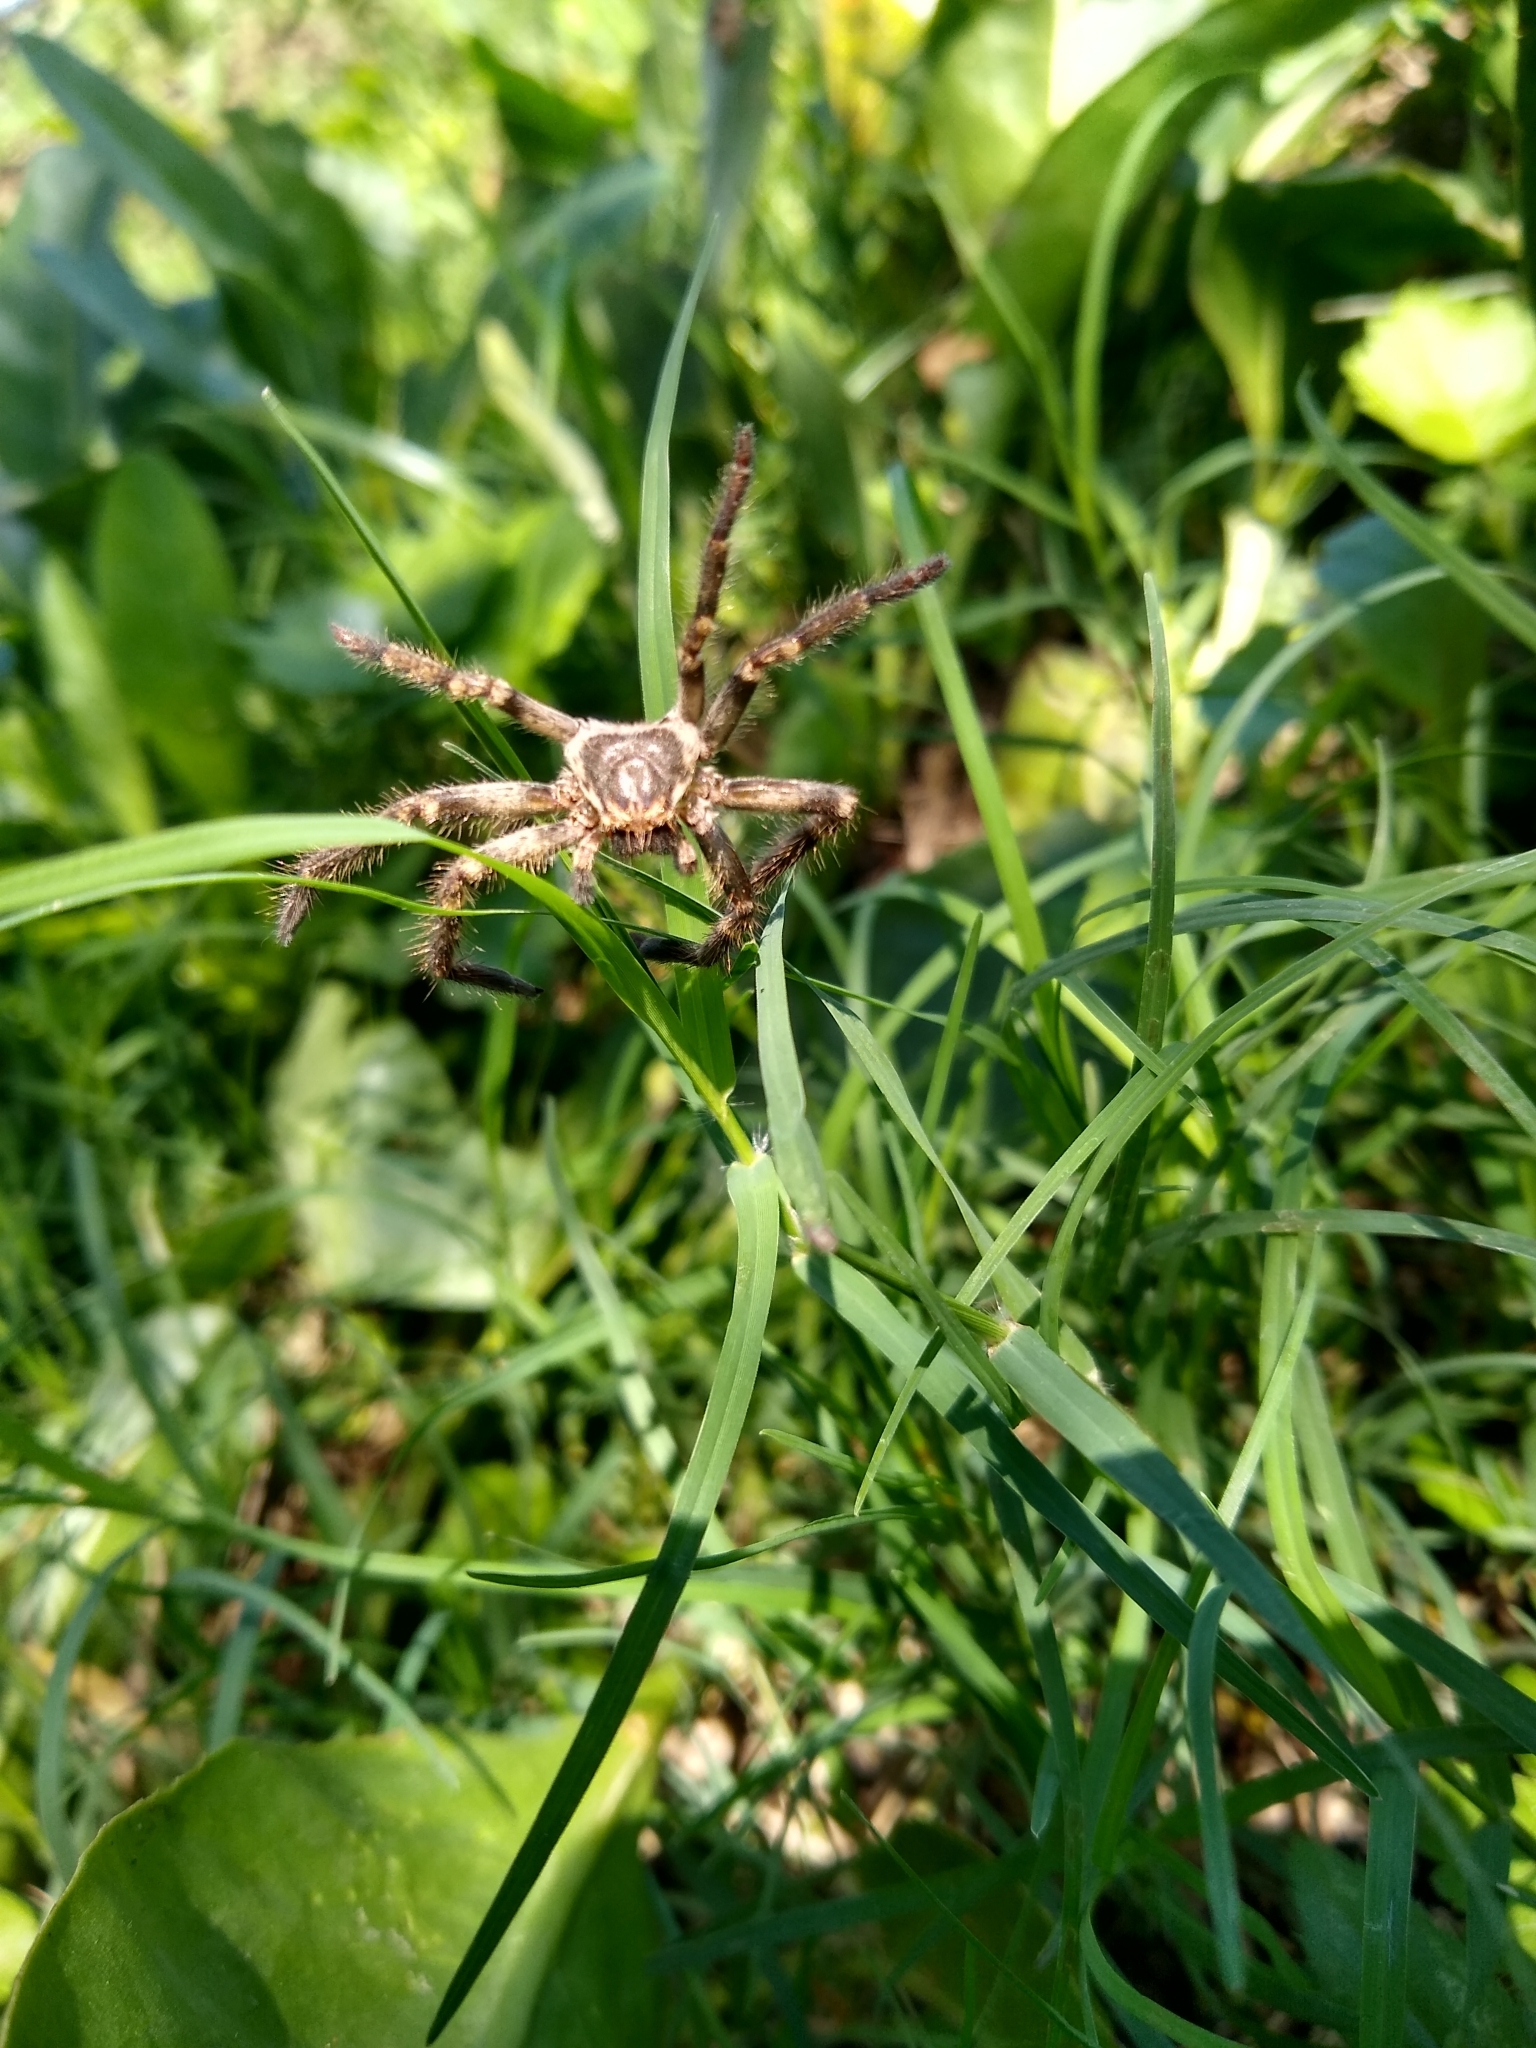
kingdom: Animalia
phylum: Arthropoda
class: Arachnida
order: Araneae
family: Sparassidae
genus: Polybetes
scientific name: Polybetes pythagoricus
